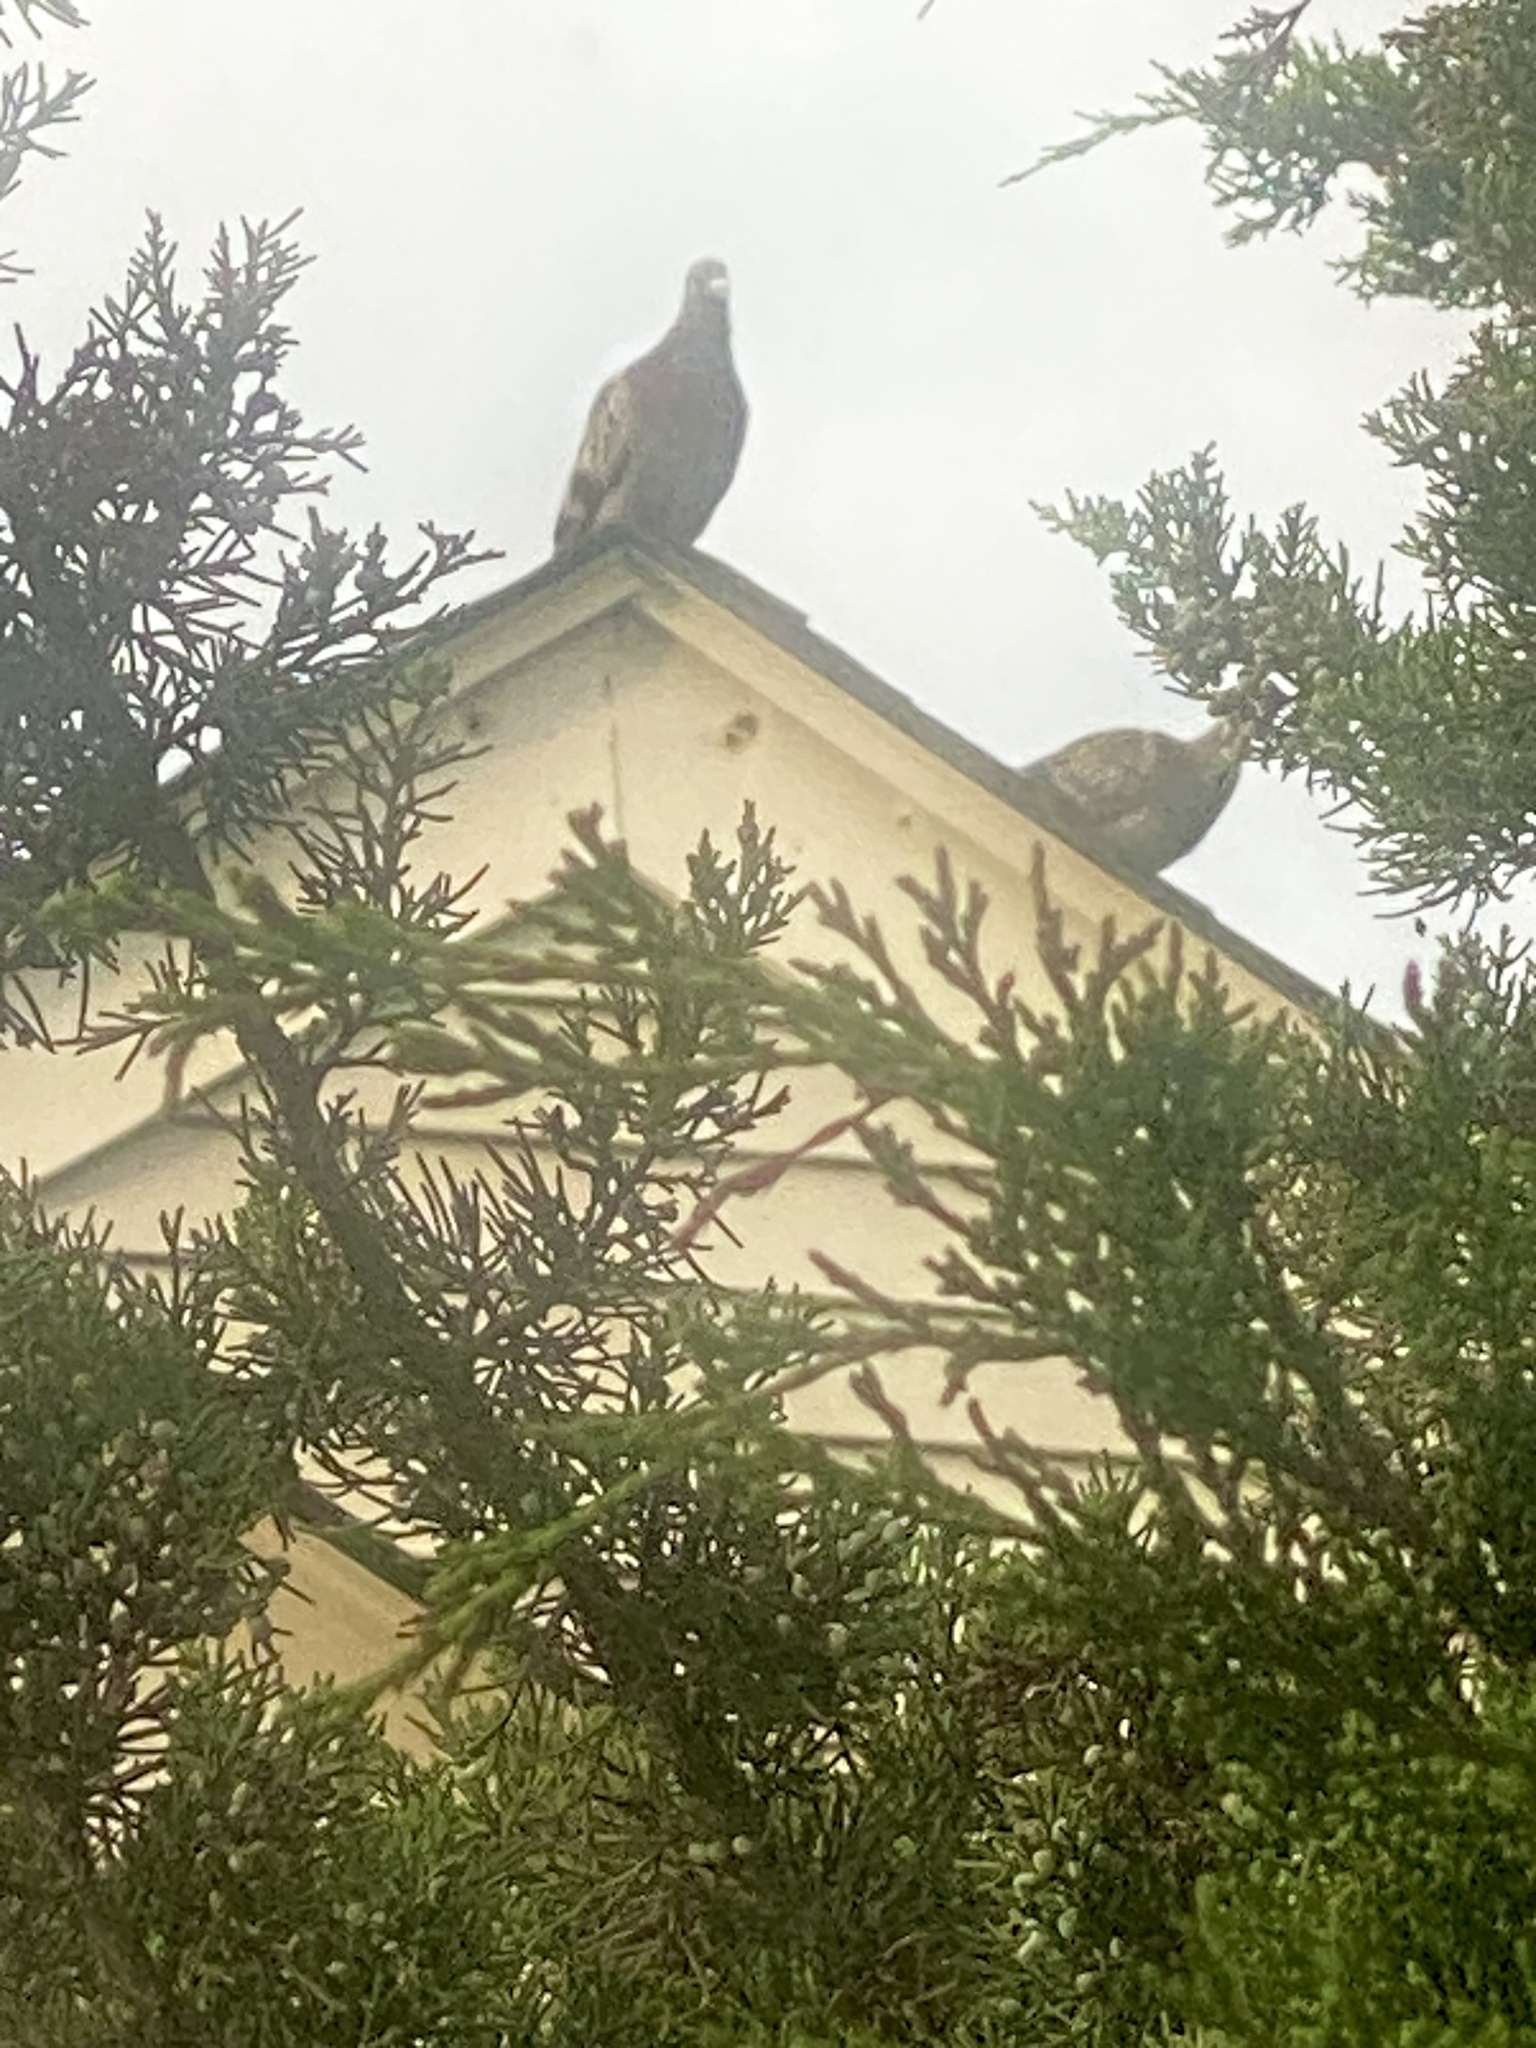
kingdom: Animalia
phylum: Chordata
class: Aves
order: Columbiformes
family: Columbidae
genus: Columba
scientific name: Columba livia
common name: Rock pigeon
